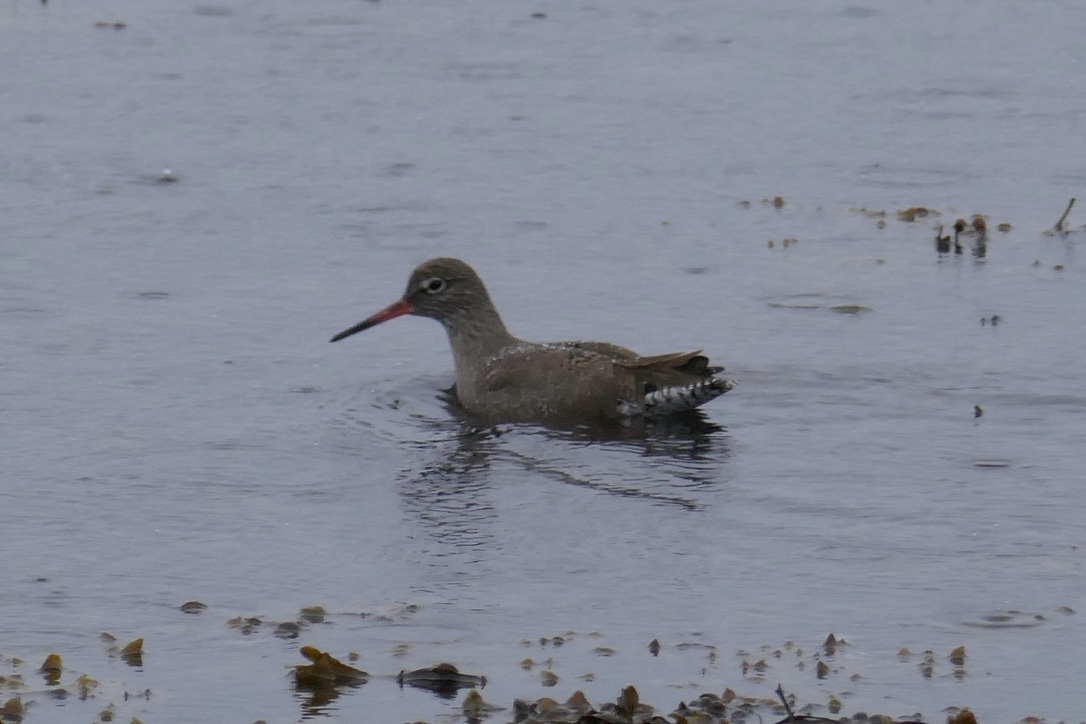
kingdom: Animalia
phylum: Chordata
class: Aves
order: Charadriiformes
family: Scolopacidae
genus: Tringa
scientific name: Tringa totanus
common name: Common redshank
